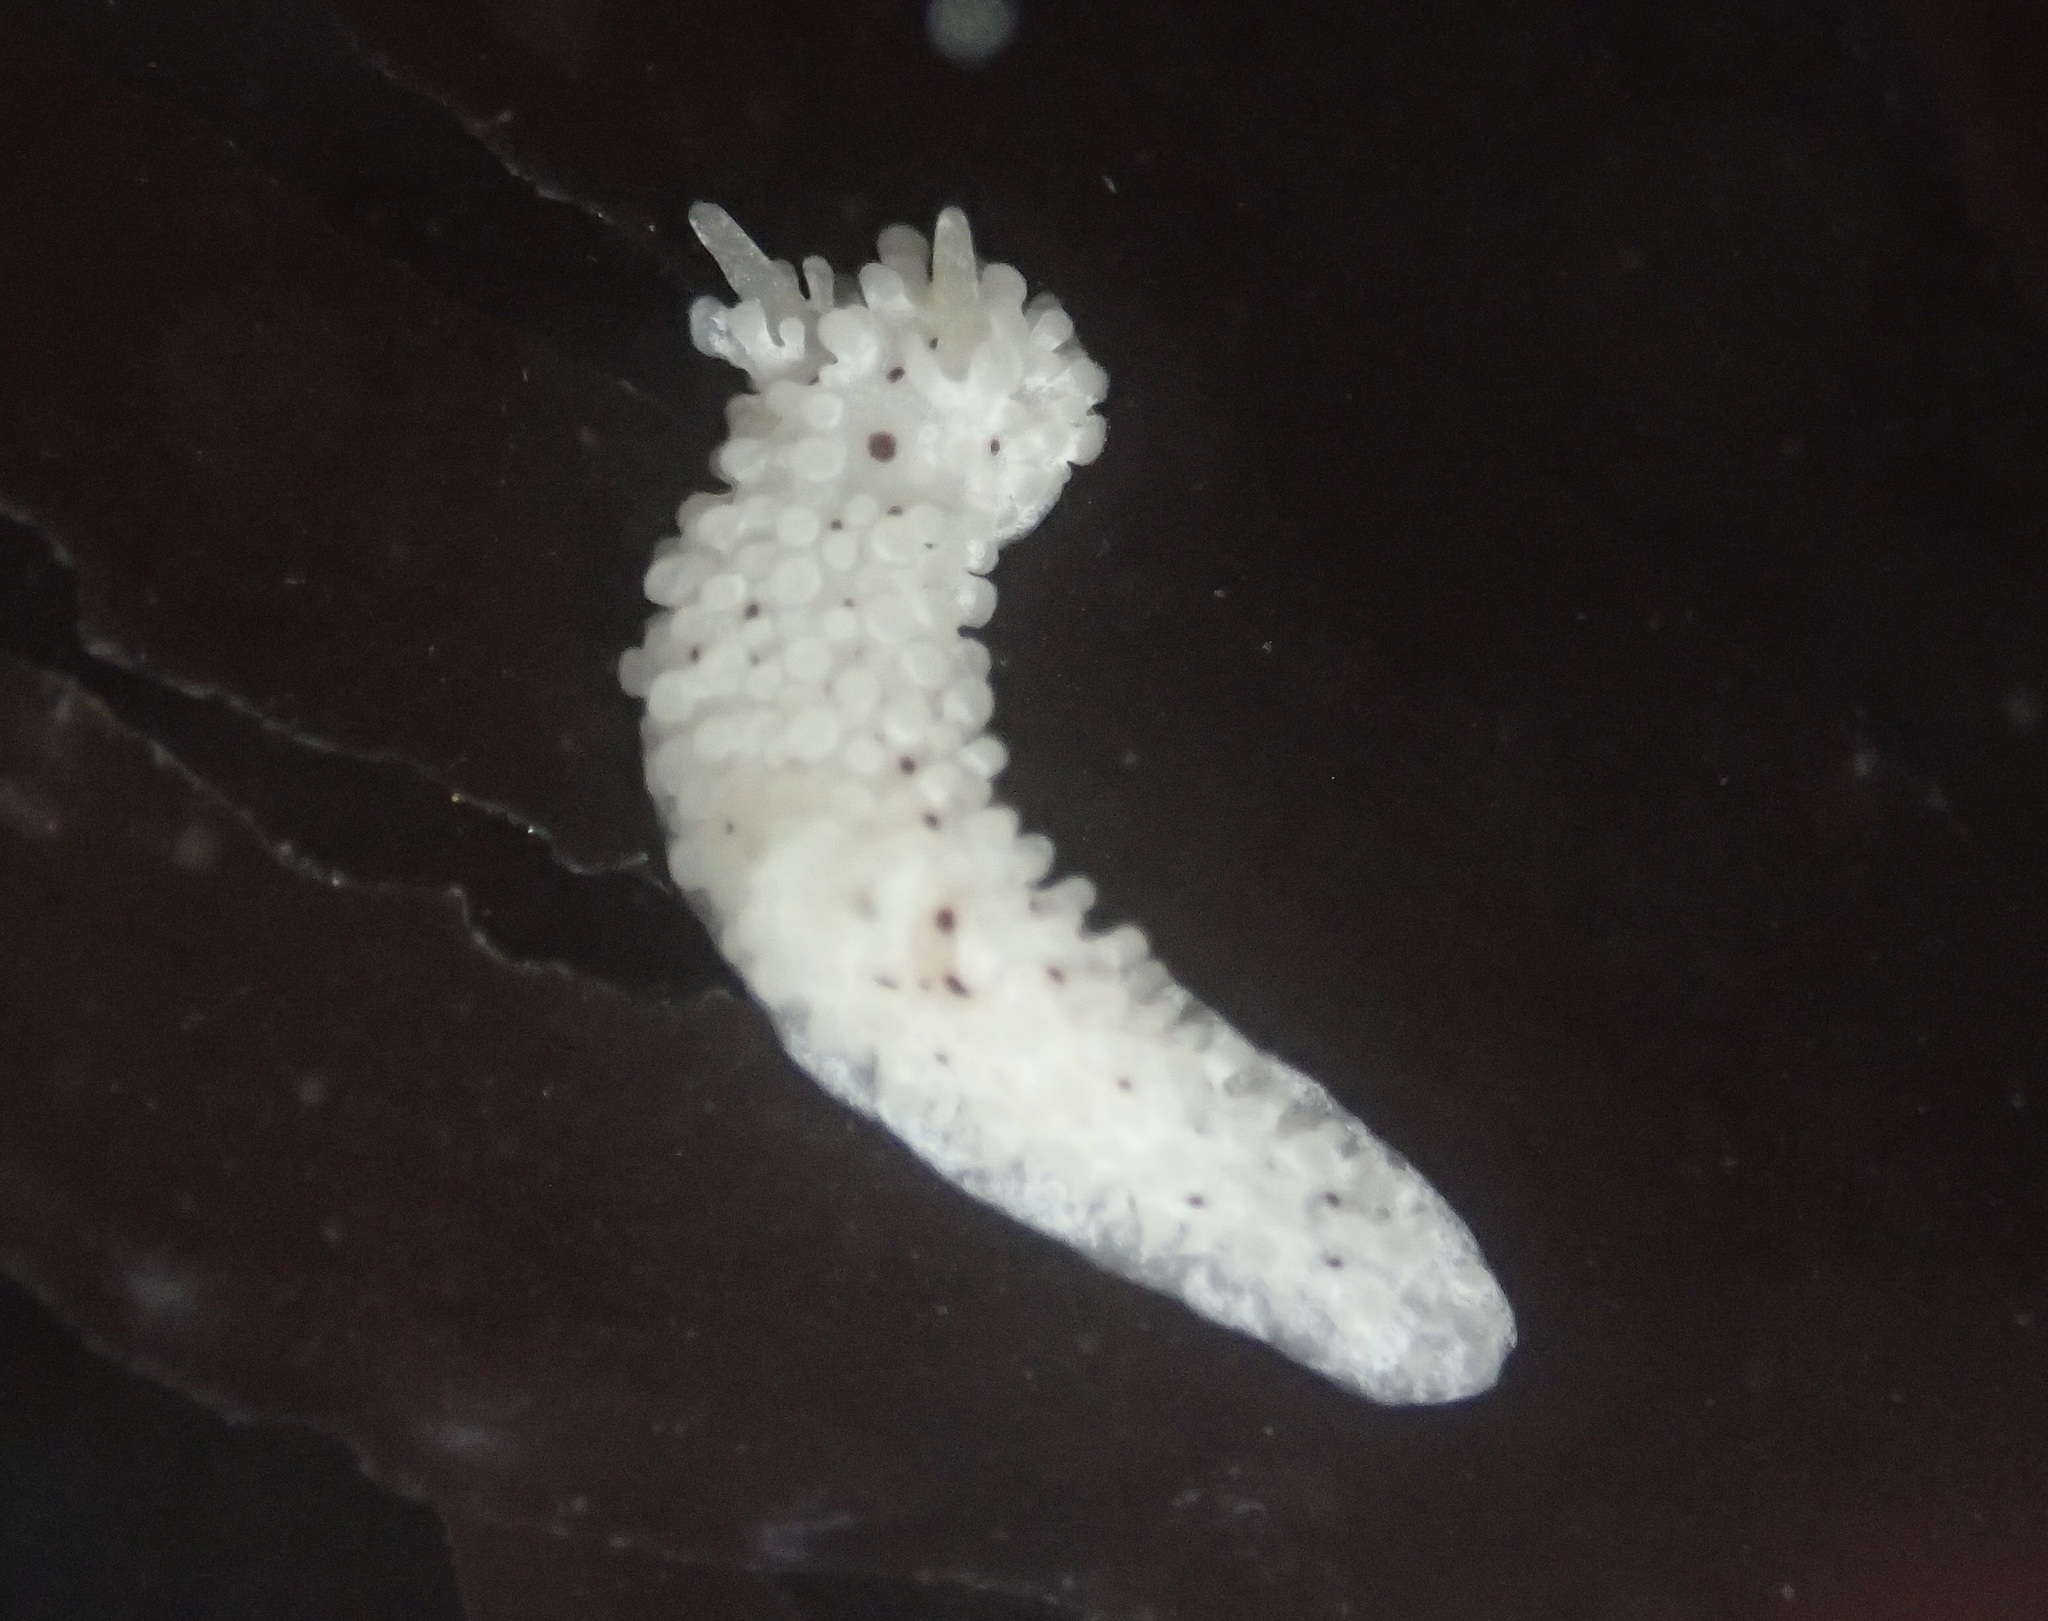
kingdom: Animalia
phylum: Mollusca
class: Gastropoda
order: Nudibranchia
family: Aegiridae
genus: Aegires
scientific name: Aegires albopunctatus
